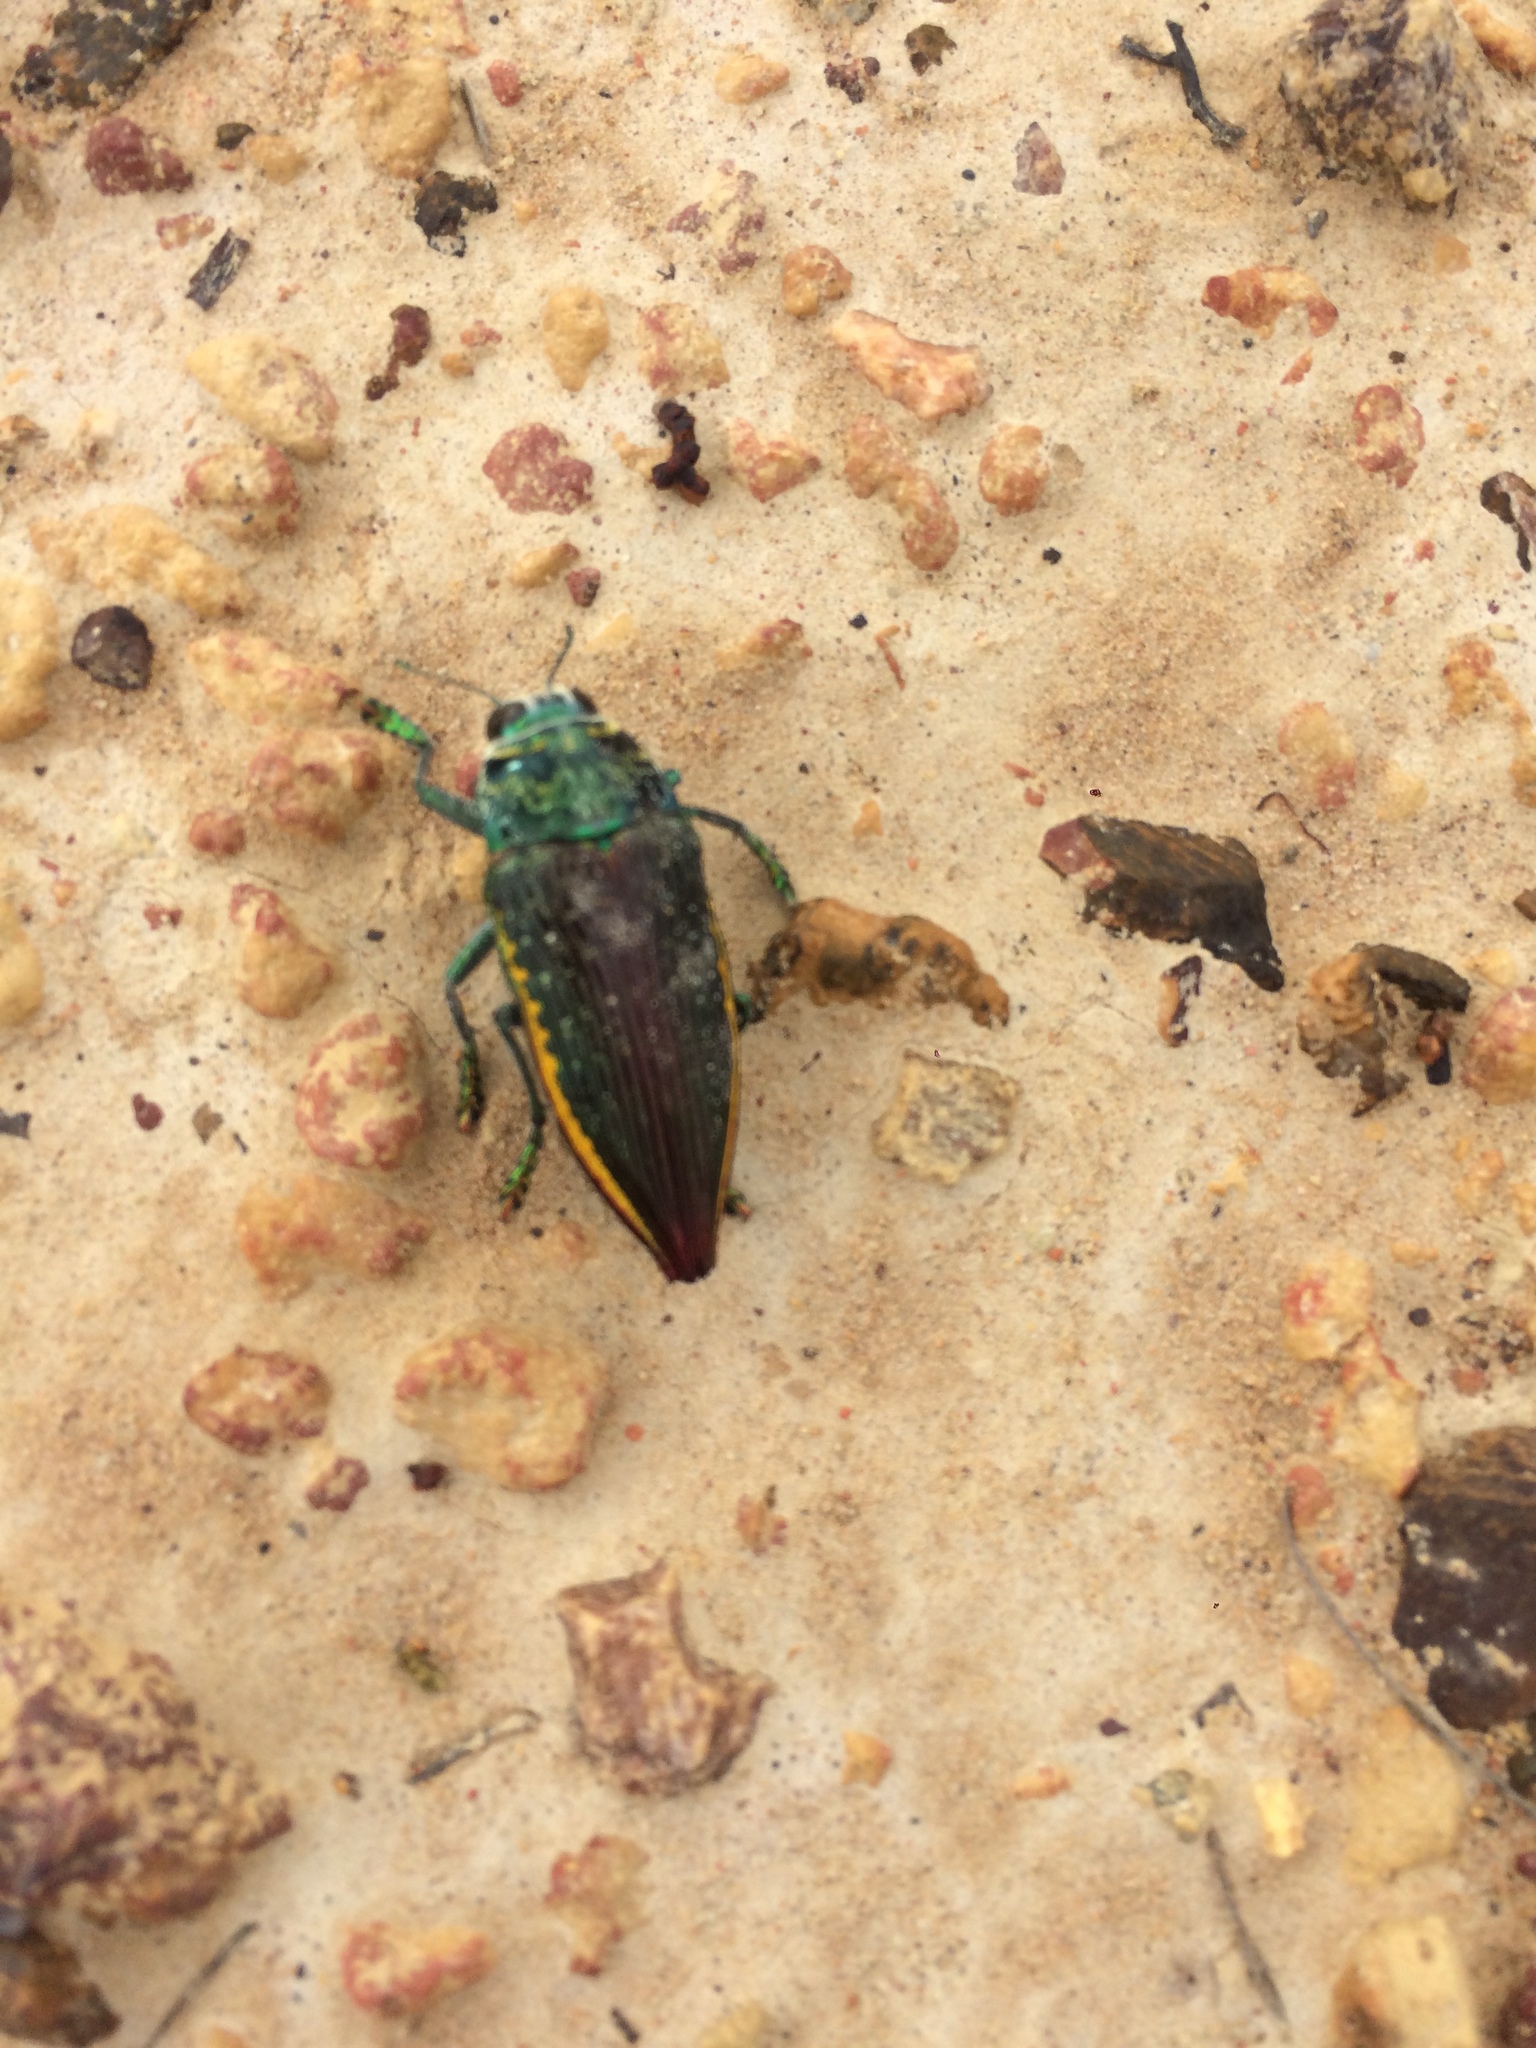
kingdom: Animalia
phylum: Arthropoda
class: Insecta
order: Coleoptera
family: Buprestidae
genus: Psiloptera
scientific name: Psiloptera rubromarginata
